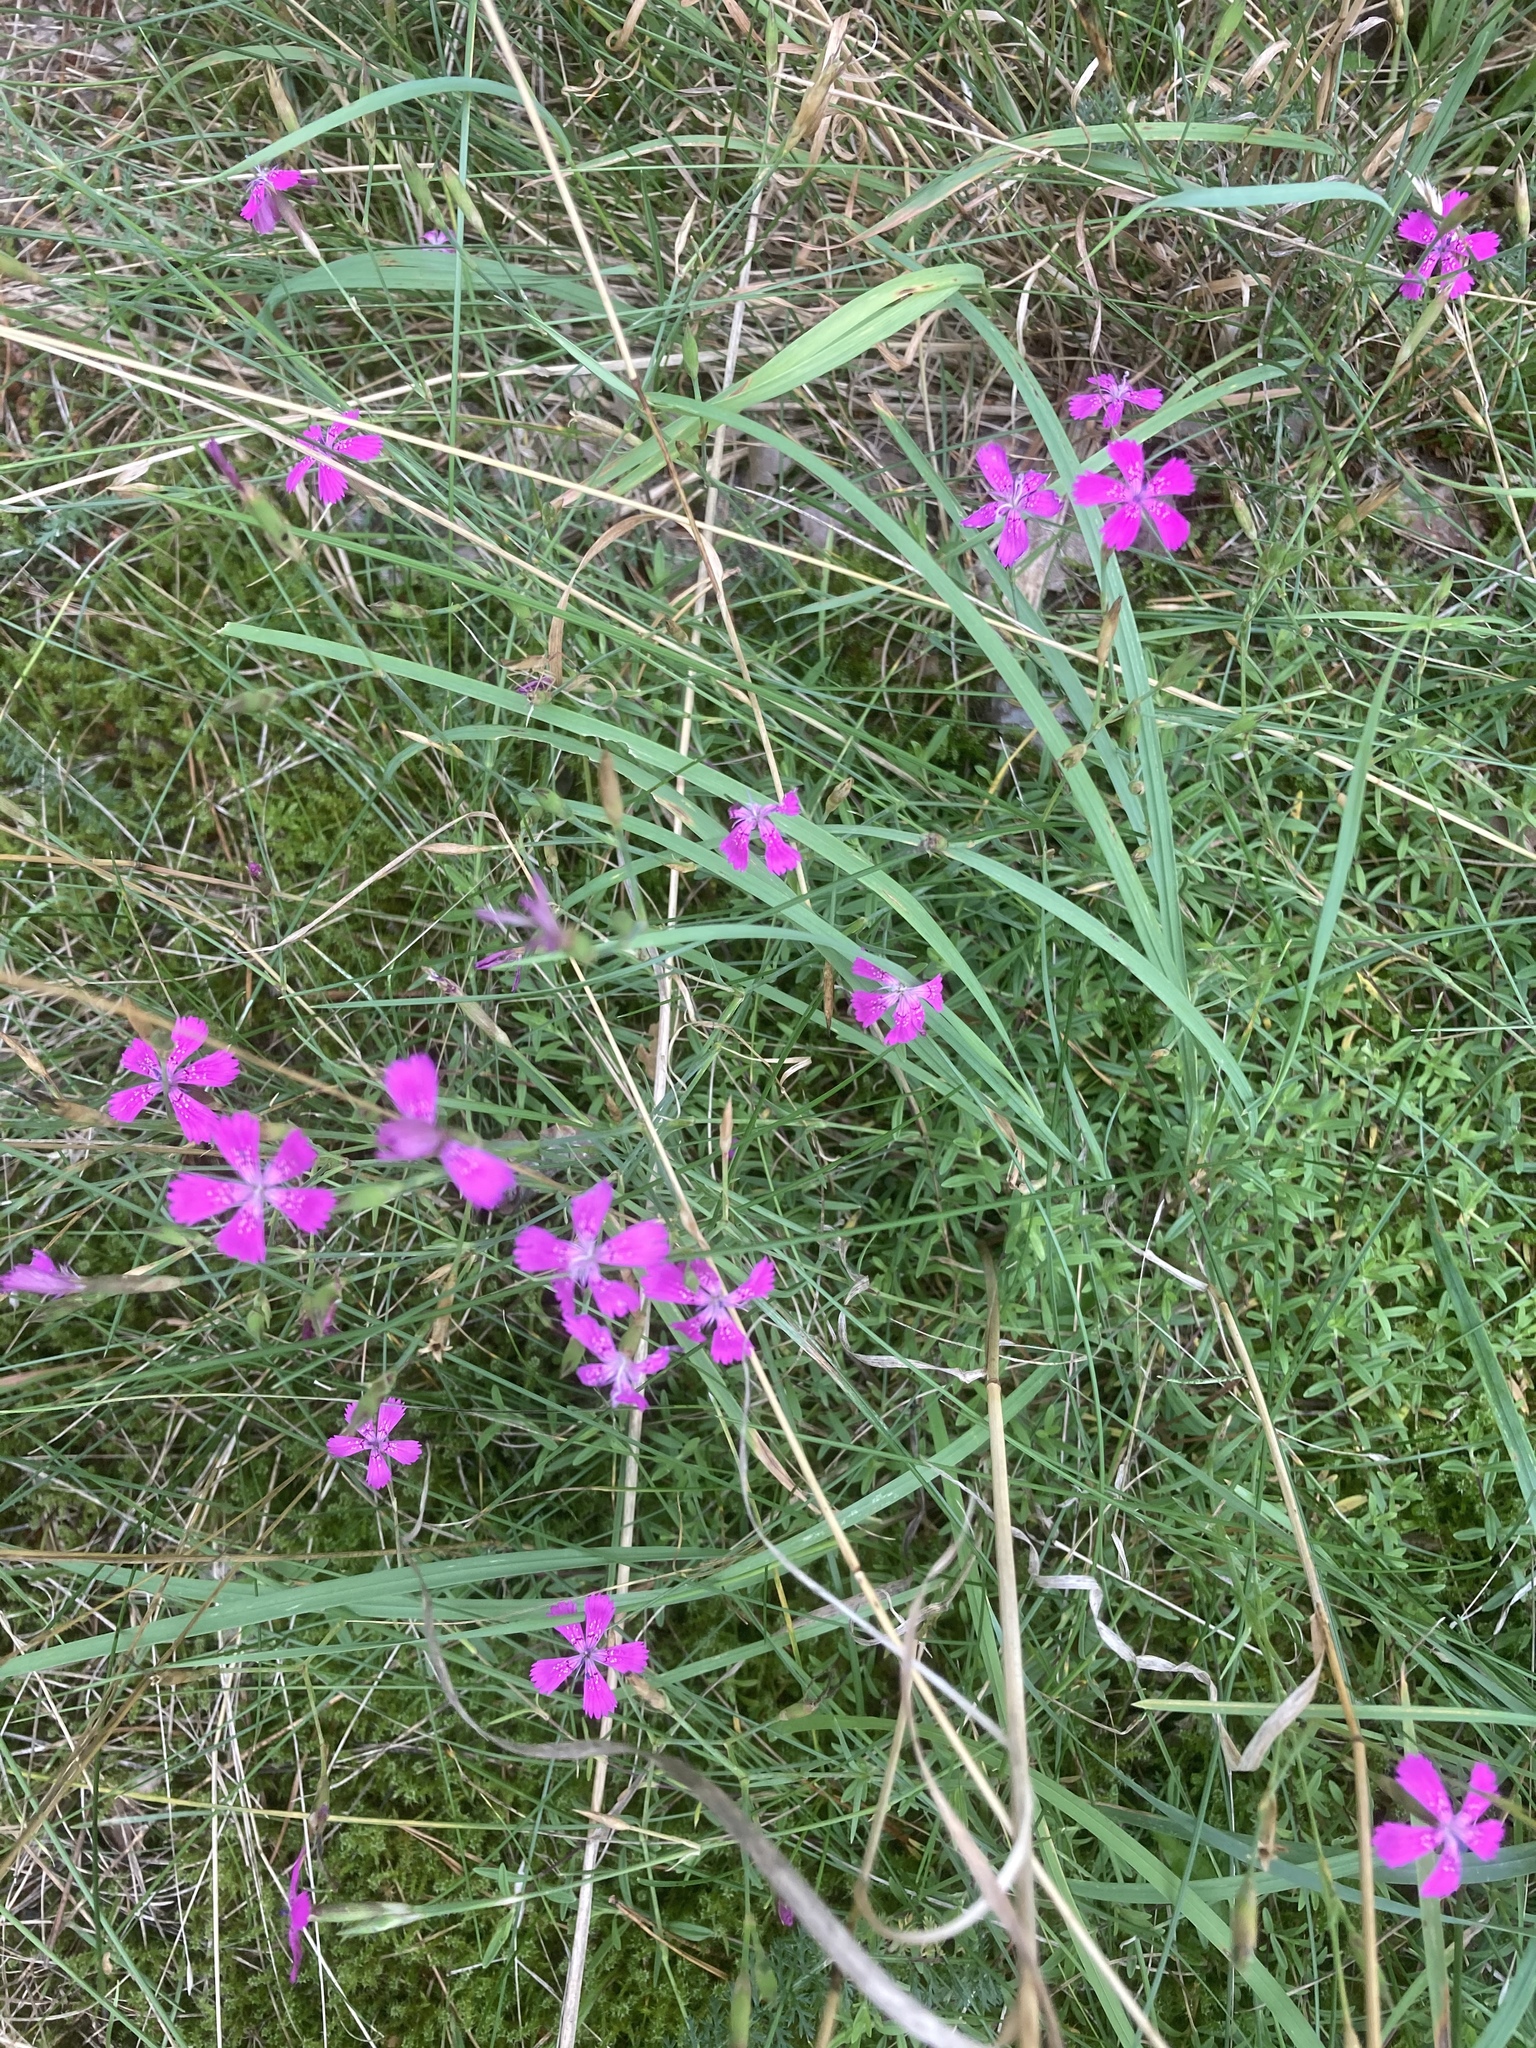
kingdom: Plantae
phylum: Tracheophyta
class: Magnoliopsida
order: Caryophyllales
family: Caryophyllaceae
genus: Dianthus
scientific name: Dianthus deltoides
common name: Maiden pink
